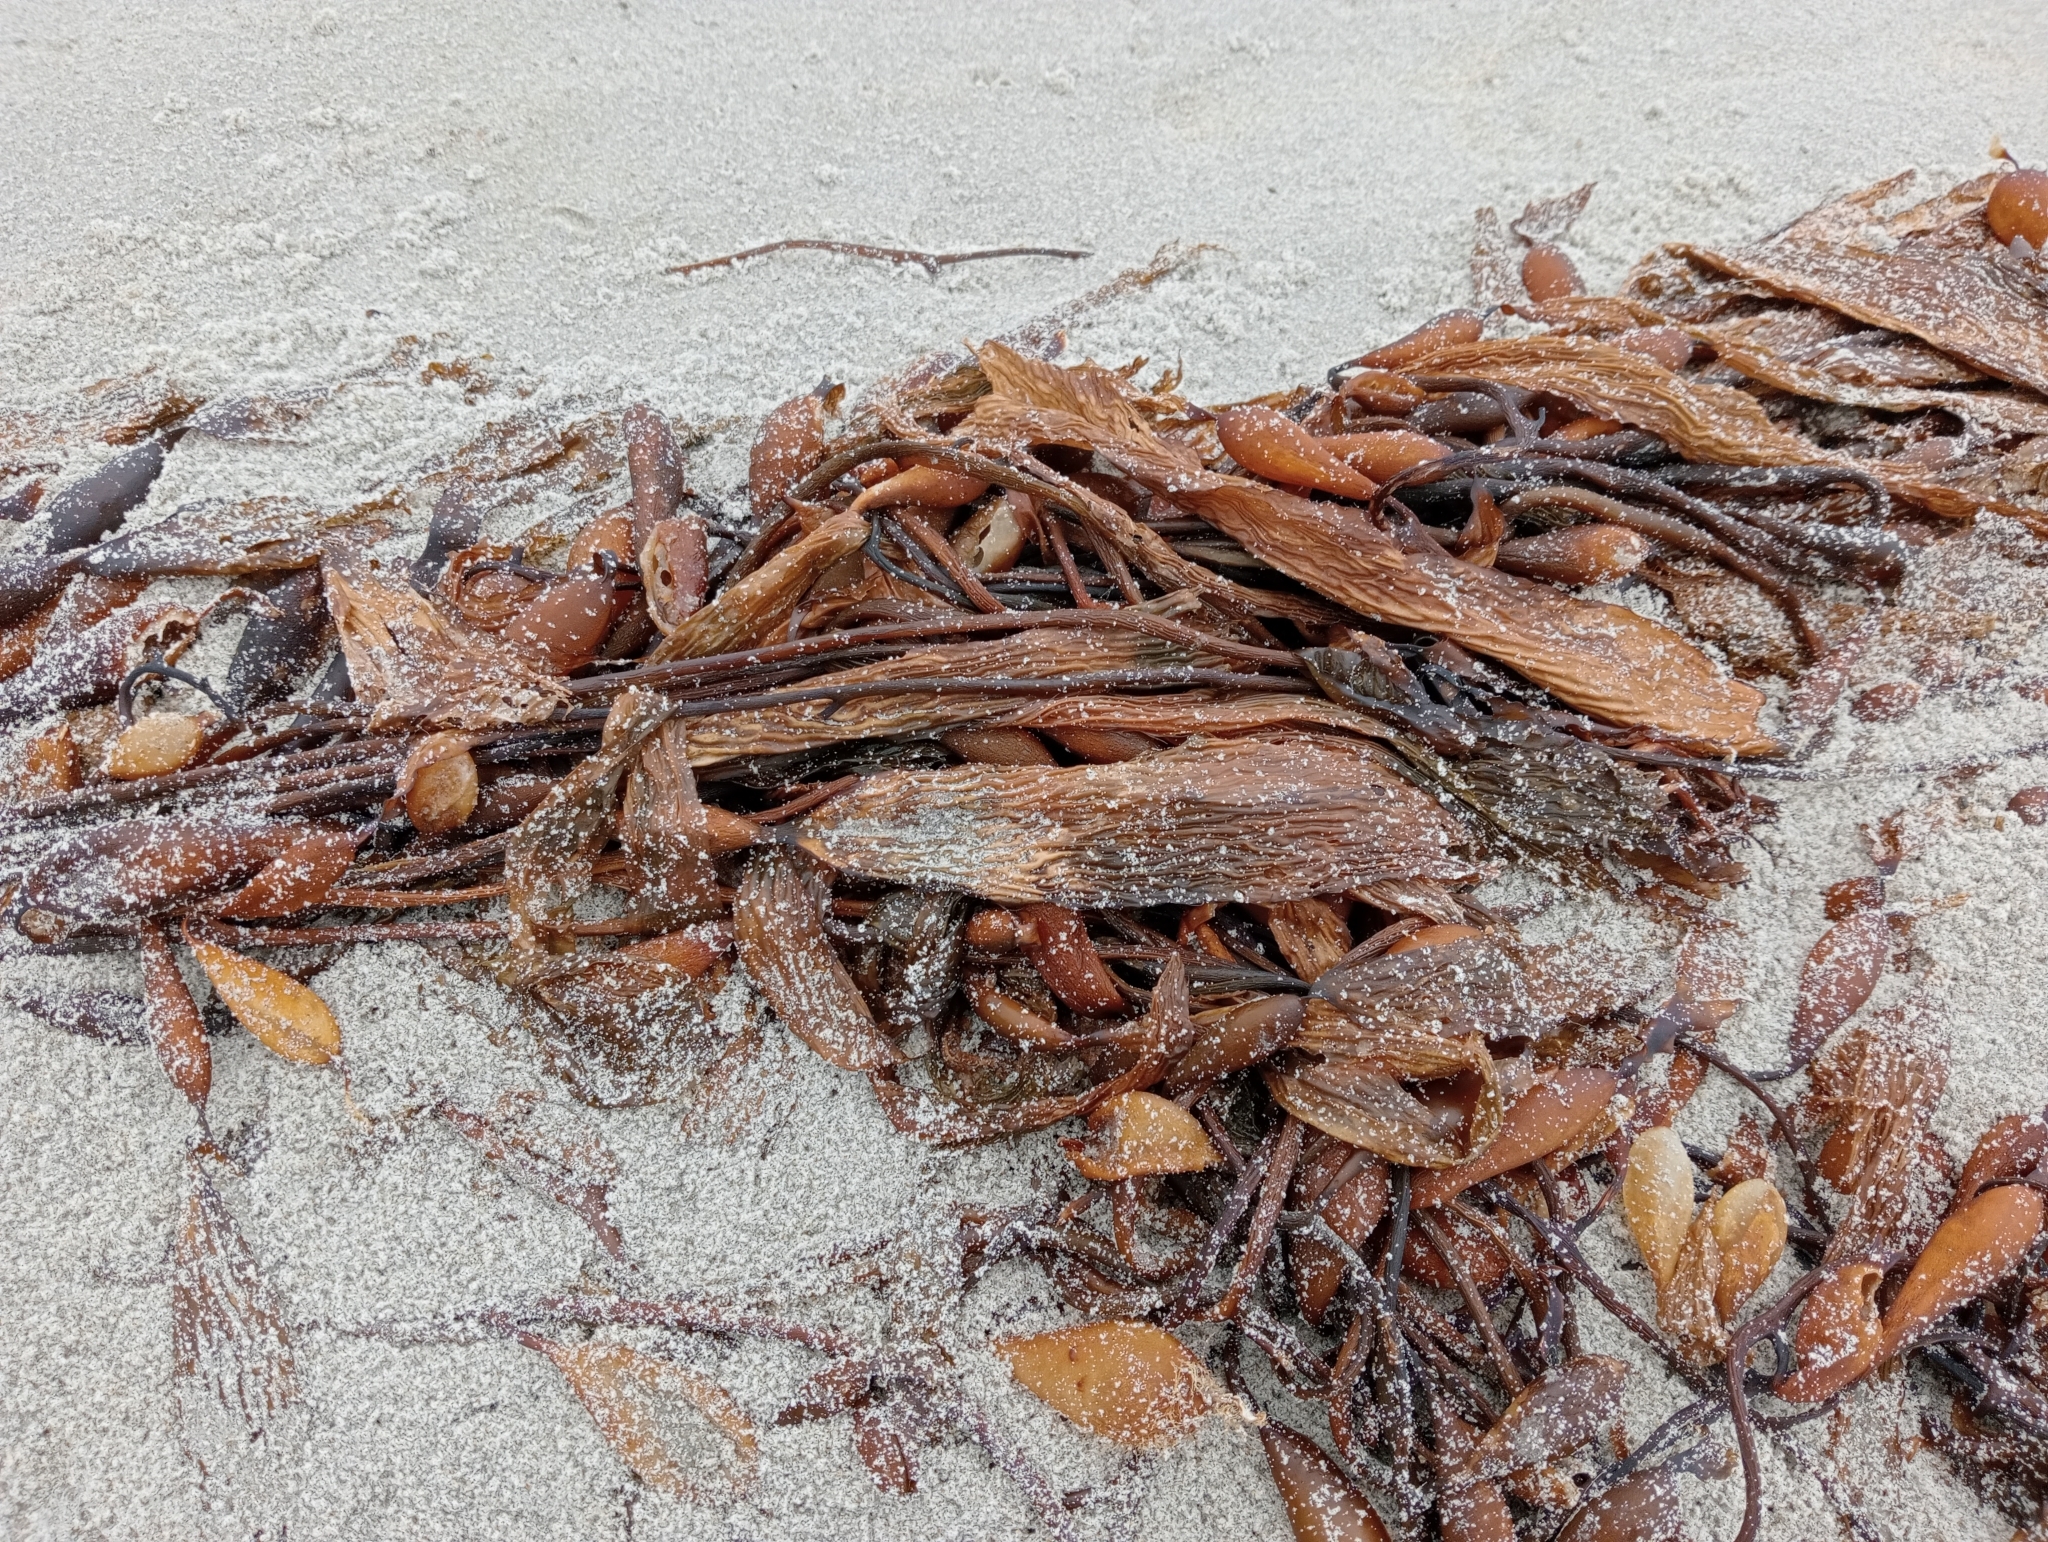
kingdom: Chromista
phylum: Ochrophyta
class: Phaeophyceae
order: Laminariales
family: Laminariaceae
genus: Macrocystis
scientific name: Macrocystis pyrifera
